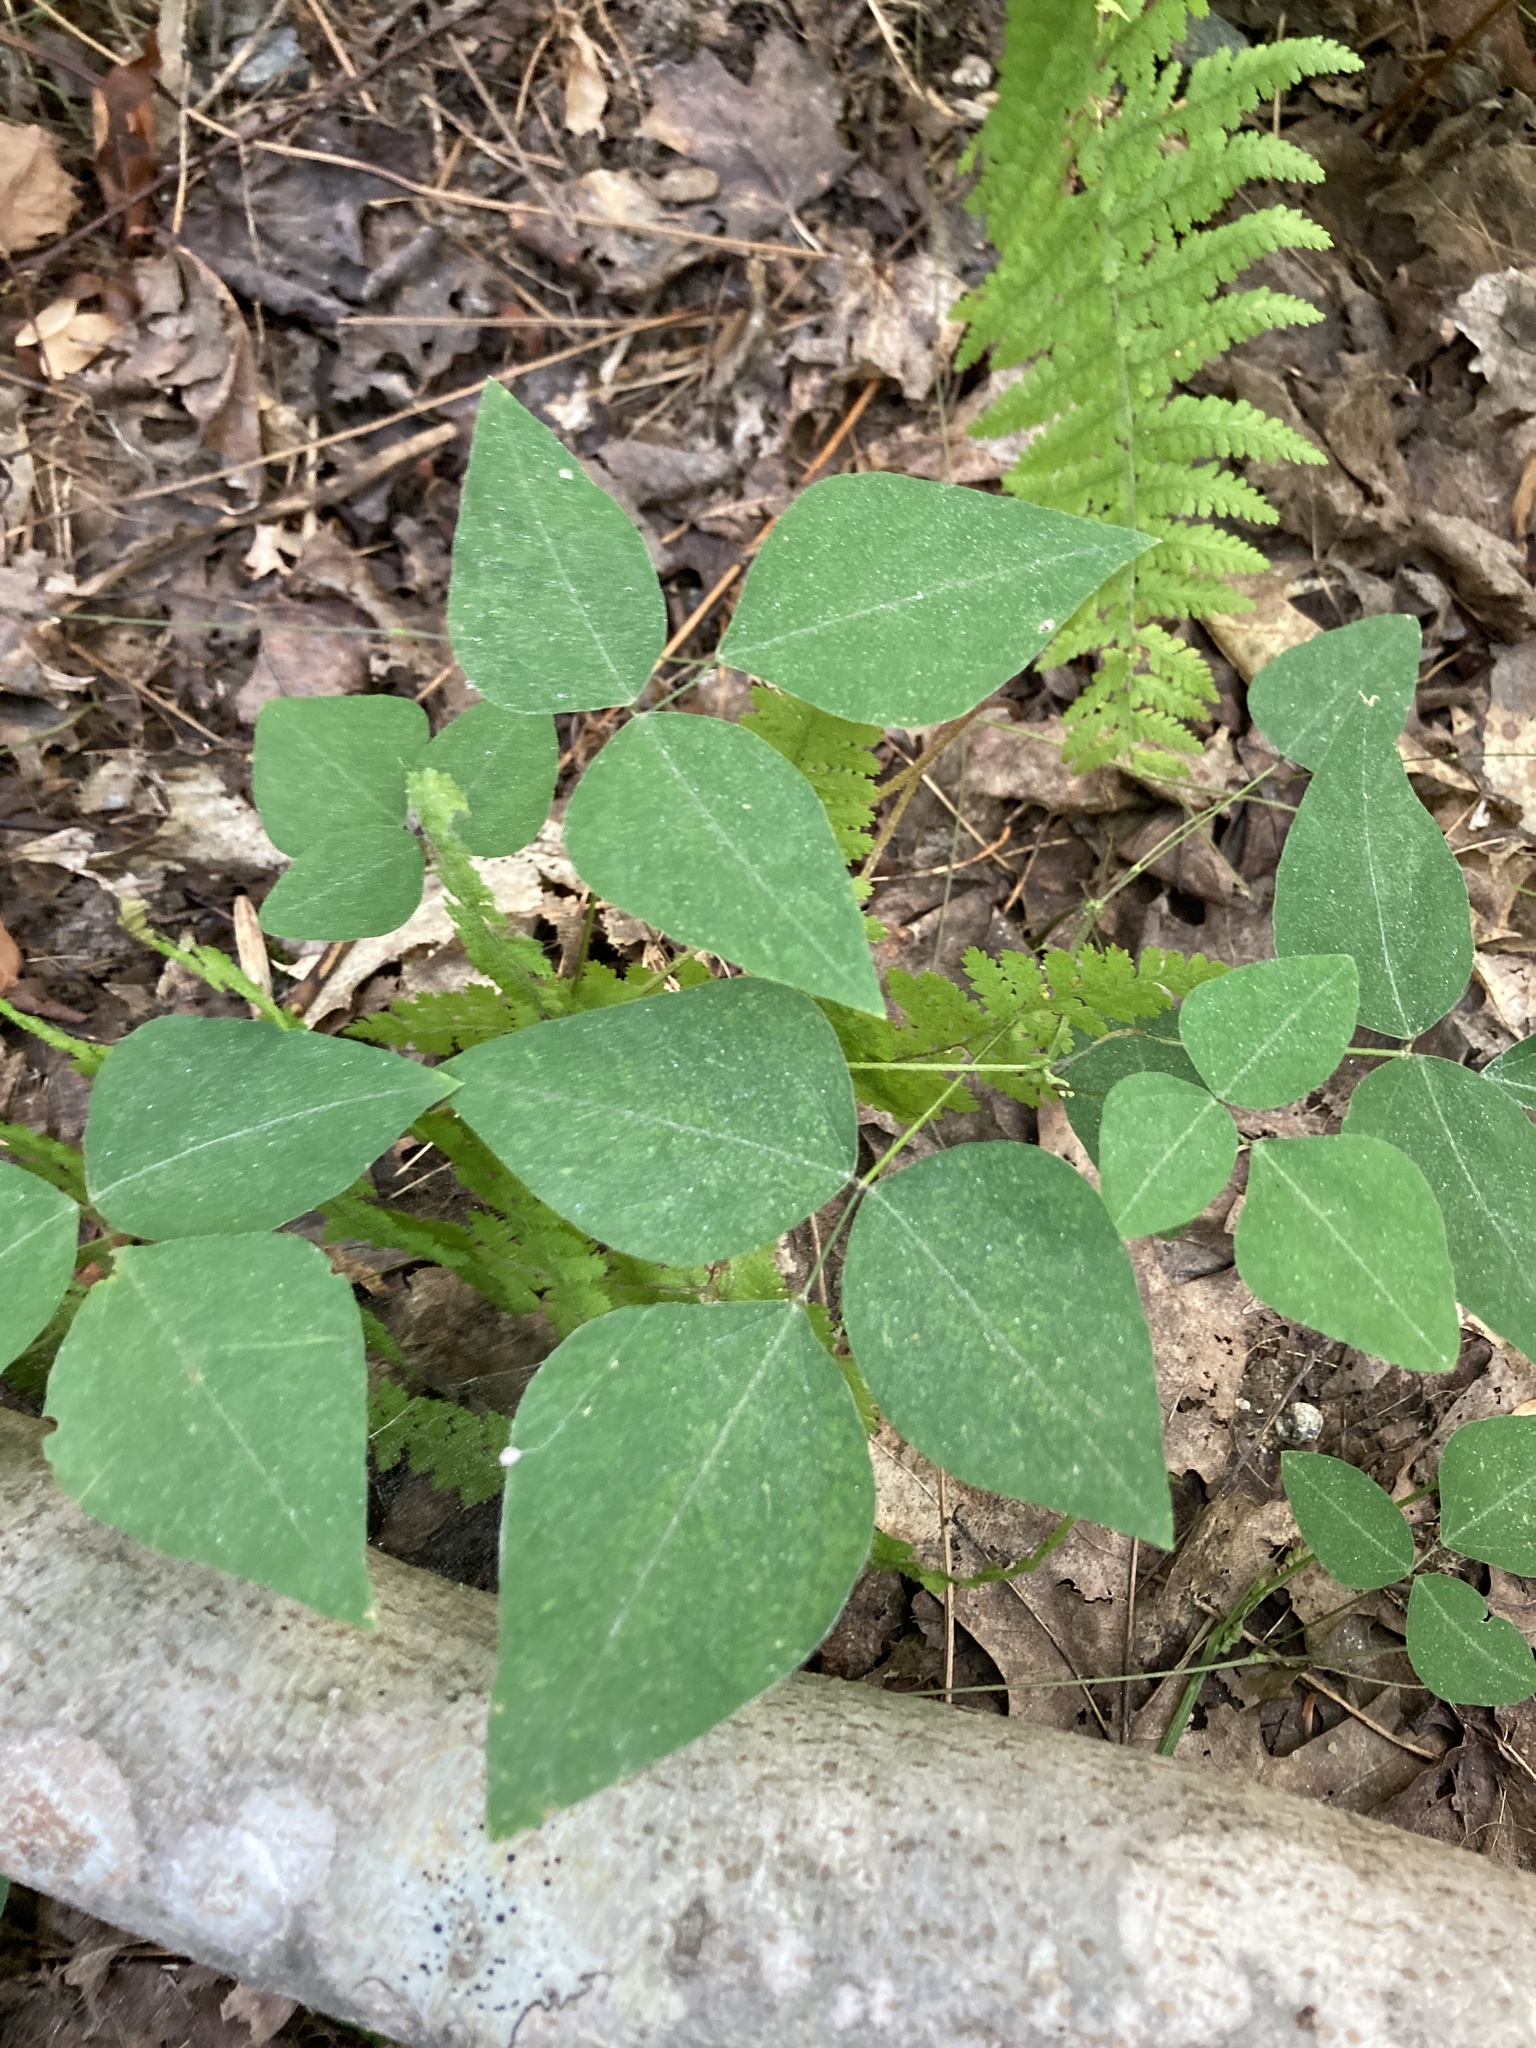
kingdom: Plantae
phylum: Tracheophyta
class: Magnoliopsida
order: Fabales
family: Fabaceae
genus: Amphicarpaea
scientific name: Amphicarpaea bracteata
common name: American hog peanut
